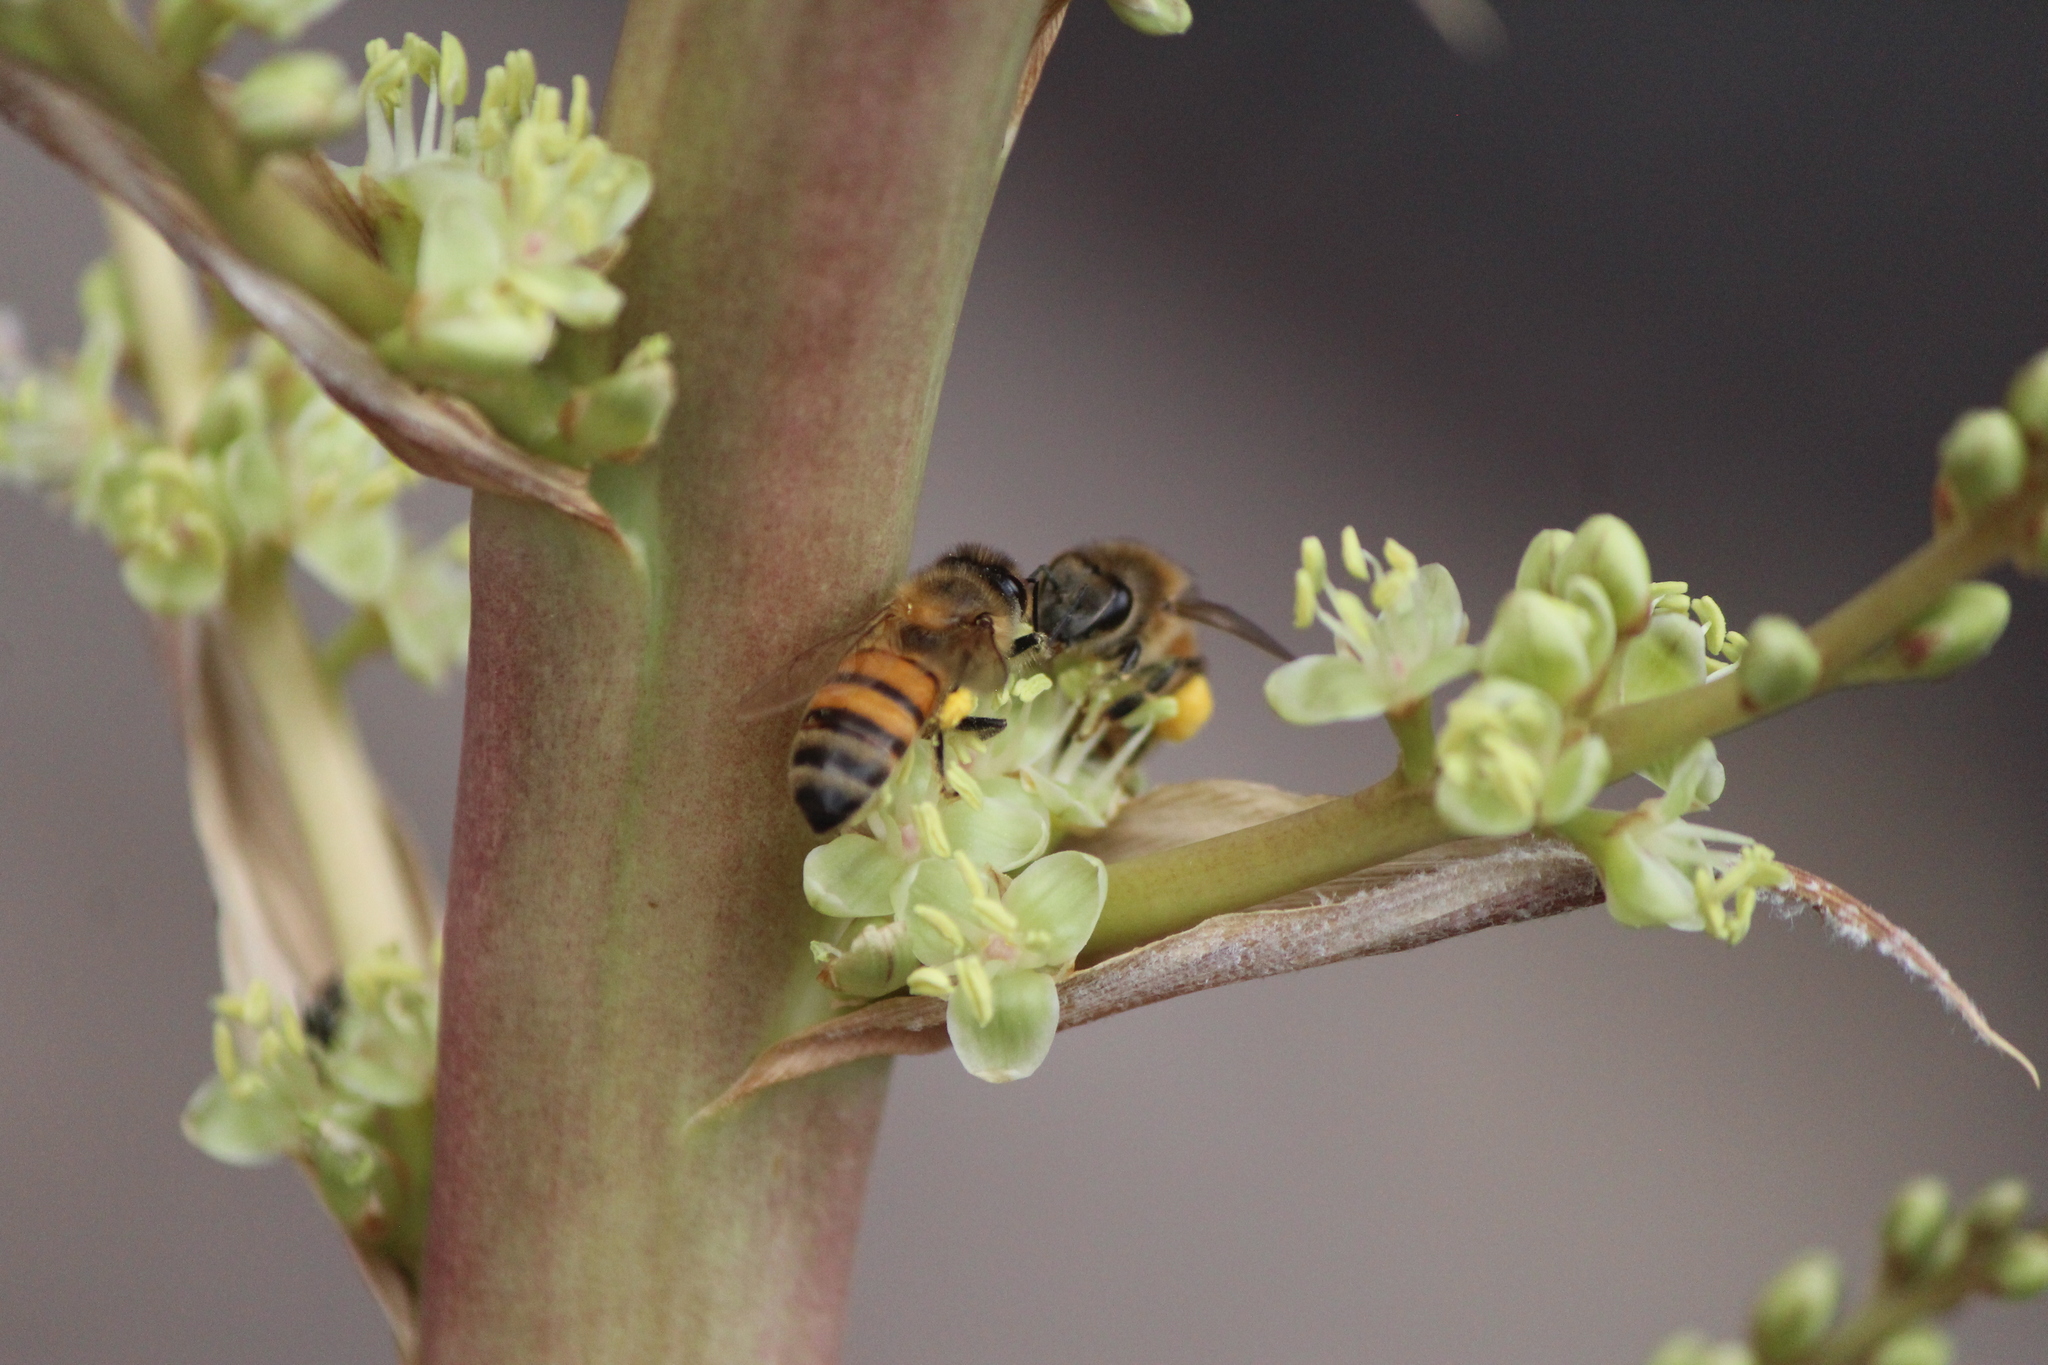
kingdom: Animalia
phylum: Arthropoda
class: Insecta
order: Hymenoptera
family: Apidae
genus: Apis
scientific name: Apis mellifera
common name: Honey bee
